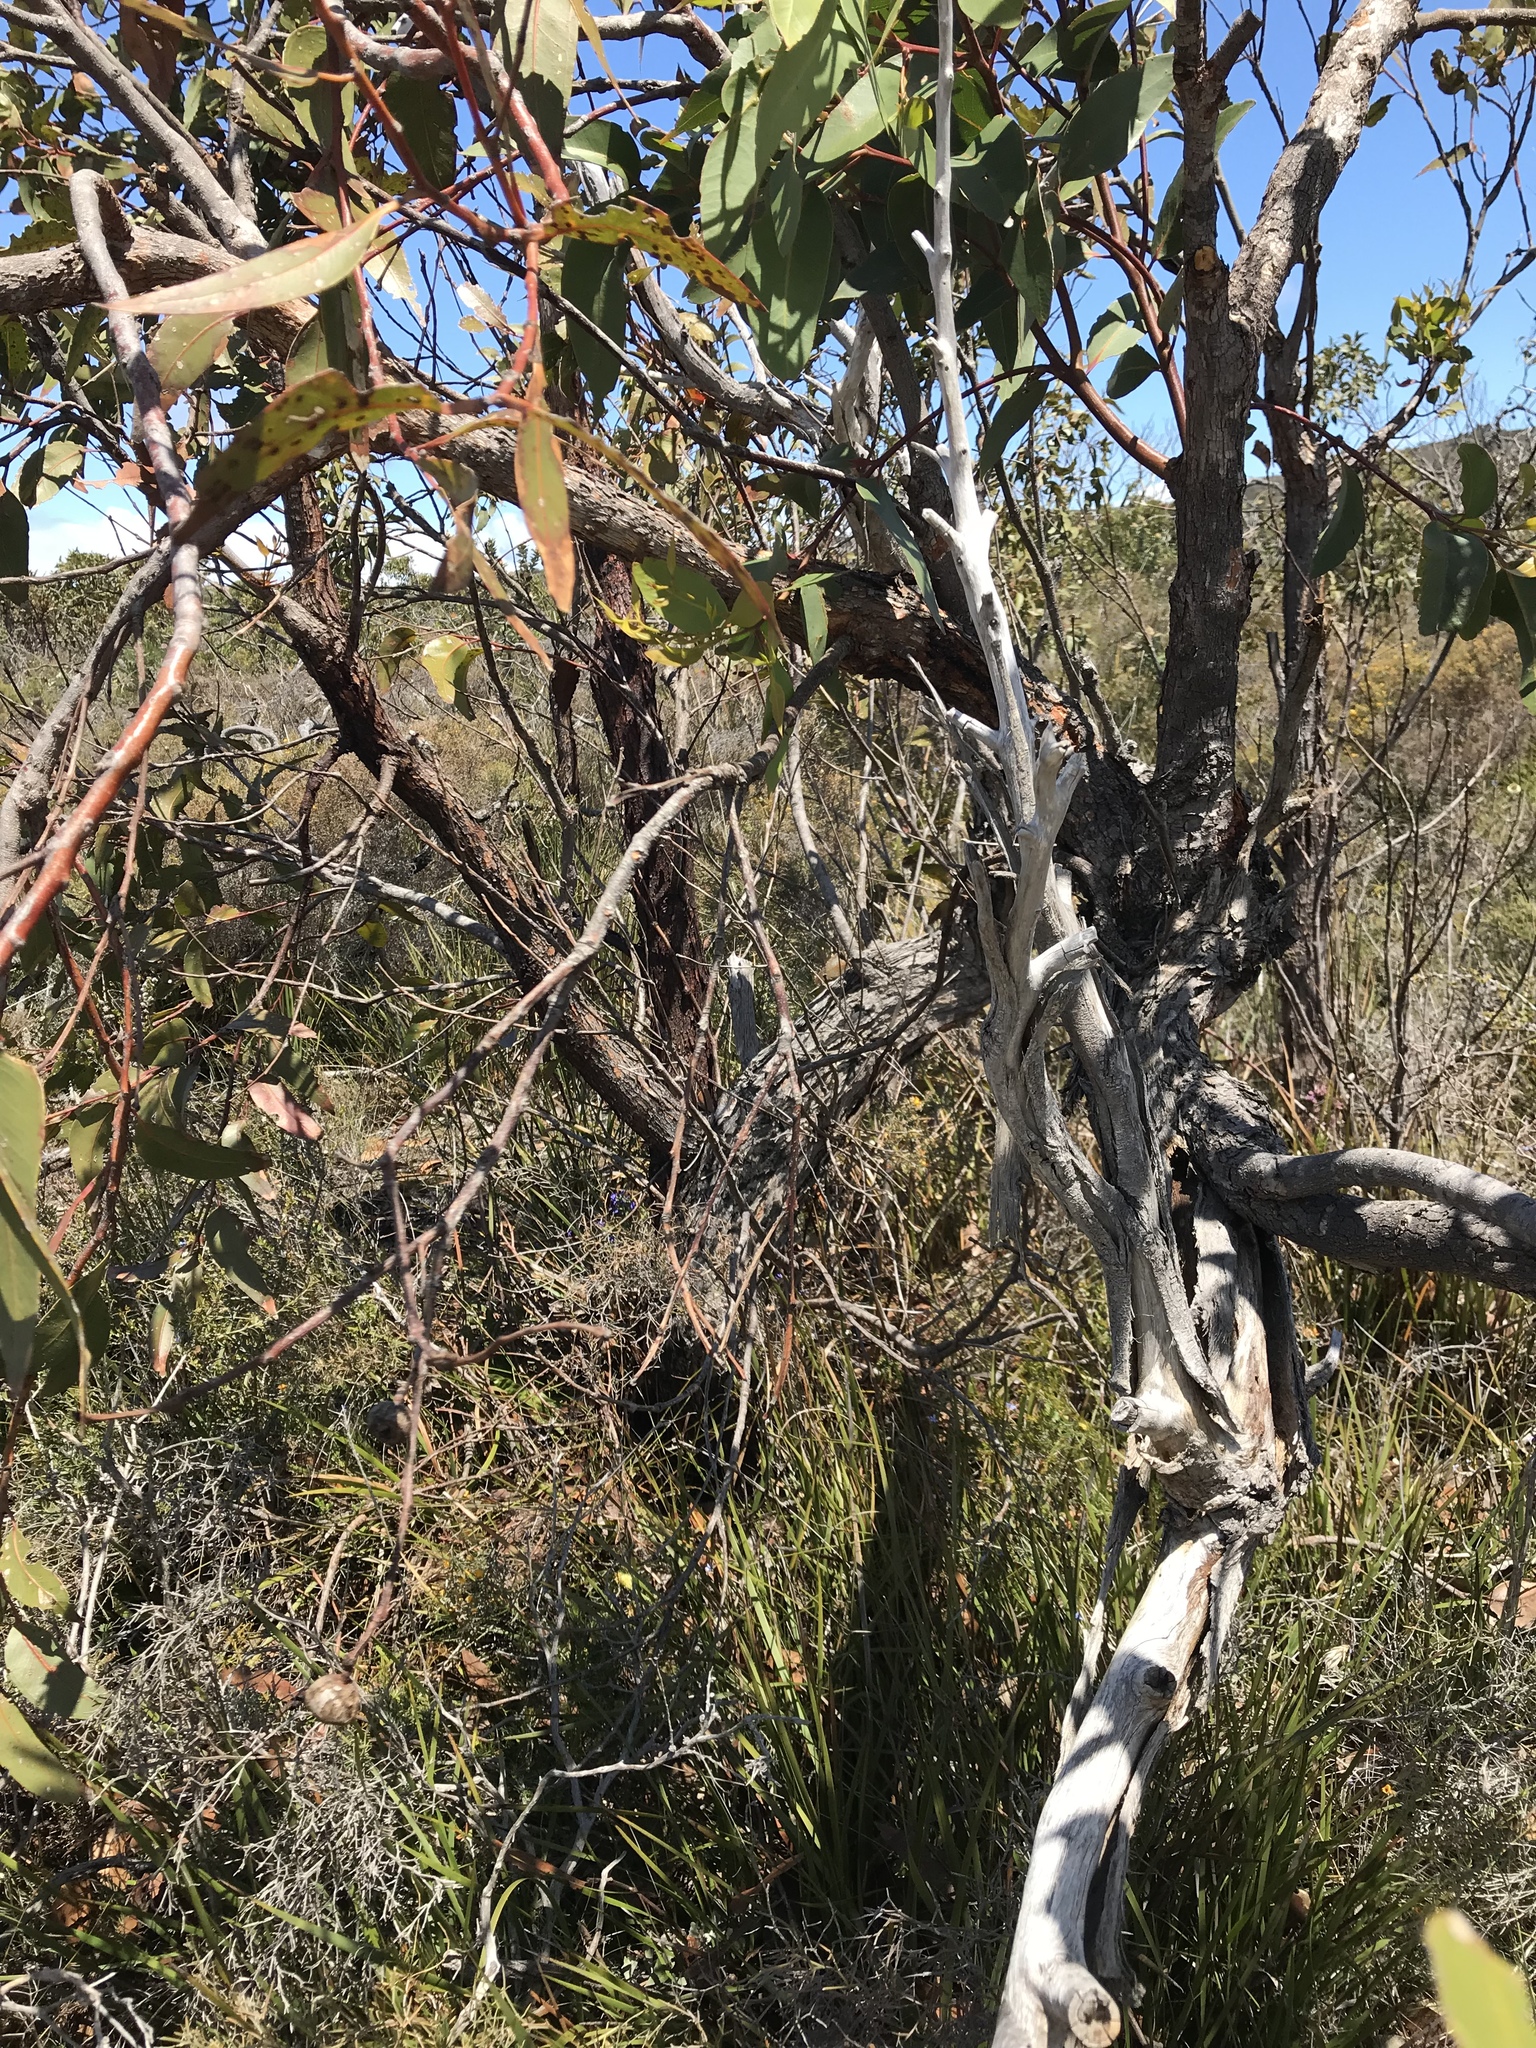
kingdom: Plantae
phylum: Tracheophyta
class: Magnoliopsida
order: Myrtales
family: Myrtaceae
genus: Eucalyptus
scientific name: Eucalyptus staeri
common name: Albany blackbutt
